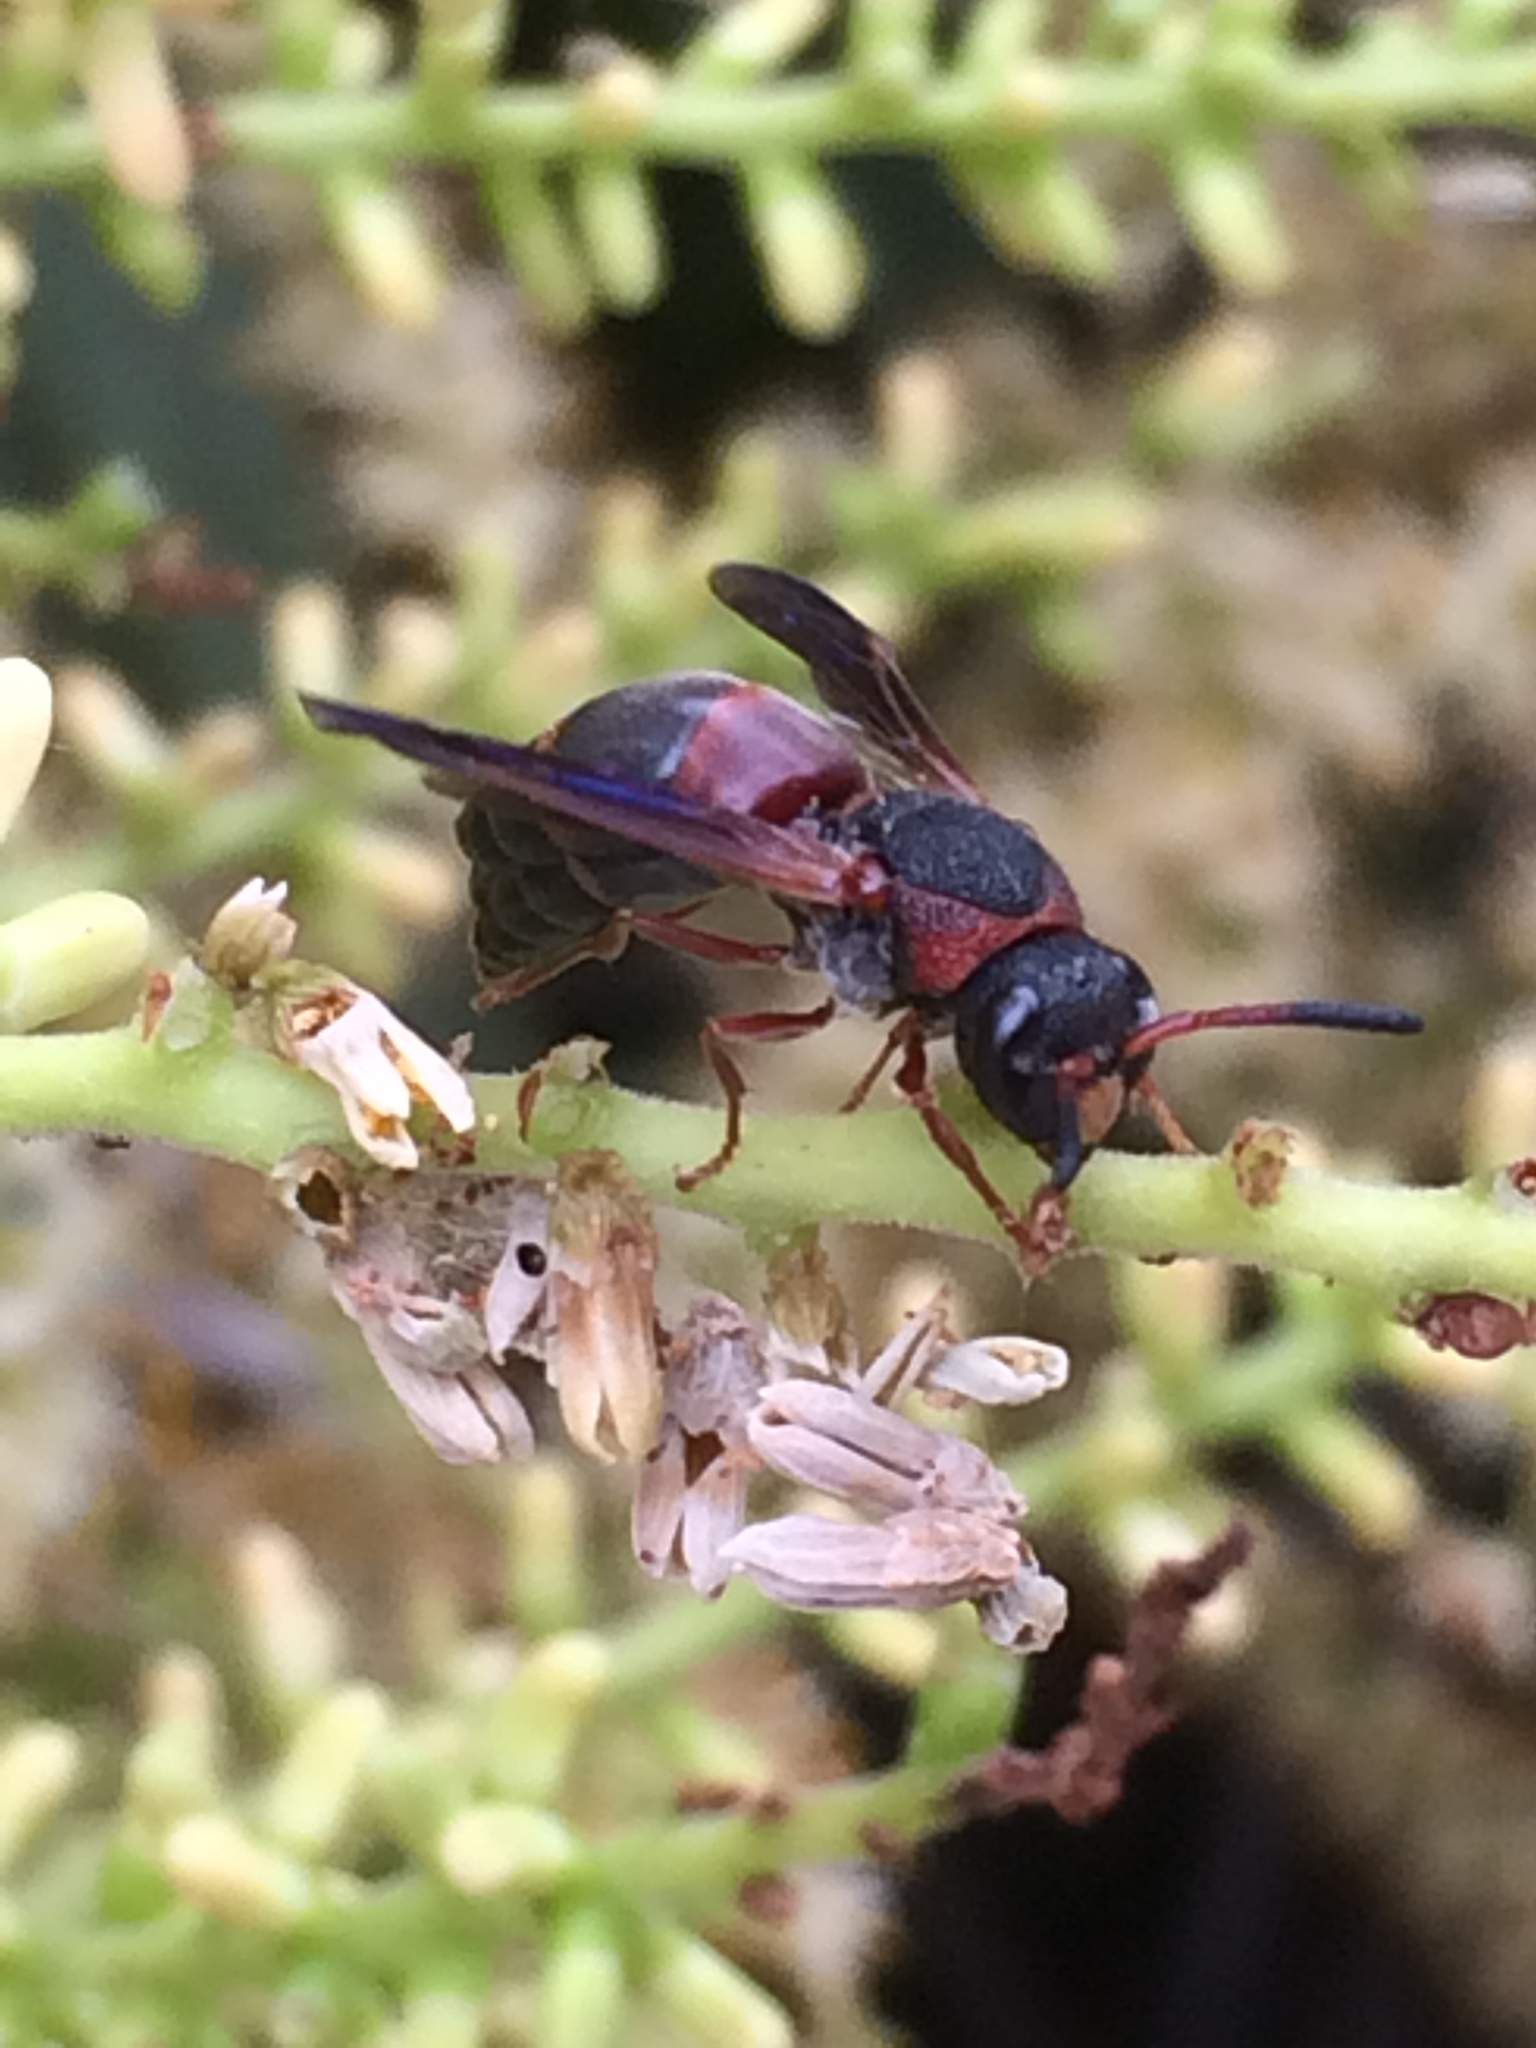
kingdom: Animalia
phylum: Arthropoda
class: Insecta
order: Hymenoptera
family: Eumenidae
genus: Pachodynerus
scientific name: Pachodynerus erynnis
